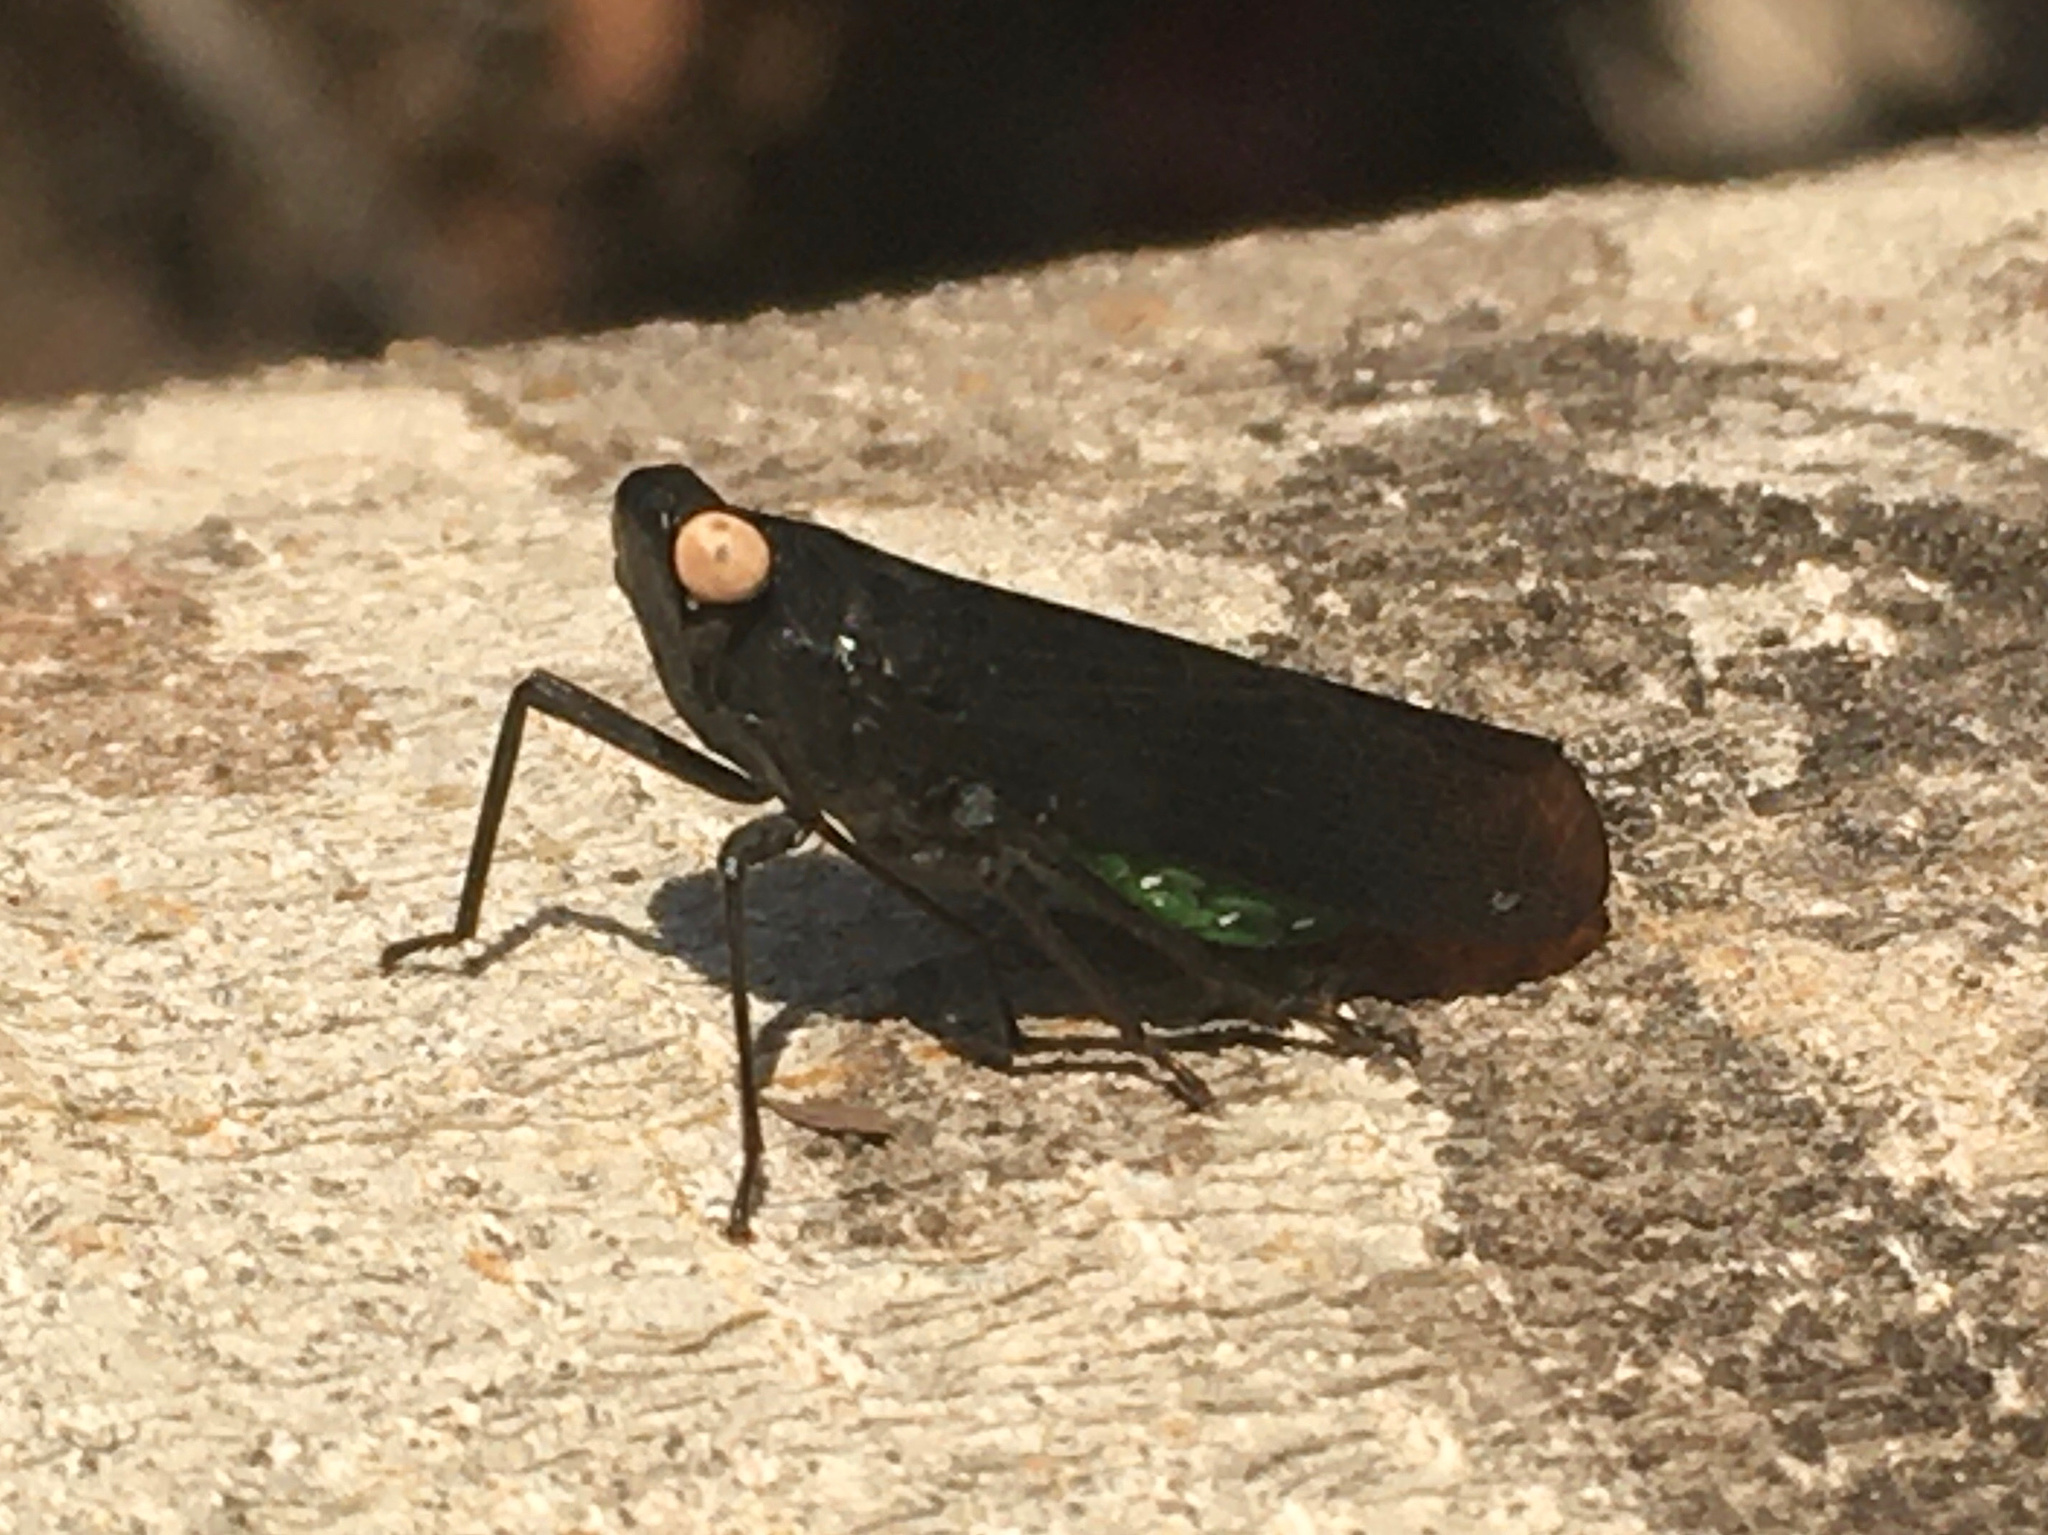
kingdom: Animalia
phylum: Arthropoda
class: Insecta
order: Hemiptera
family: Fulgoridae
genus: Desudaba
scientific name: Desudaba psittacus
